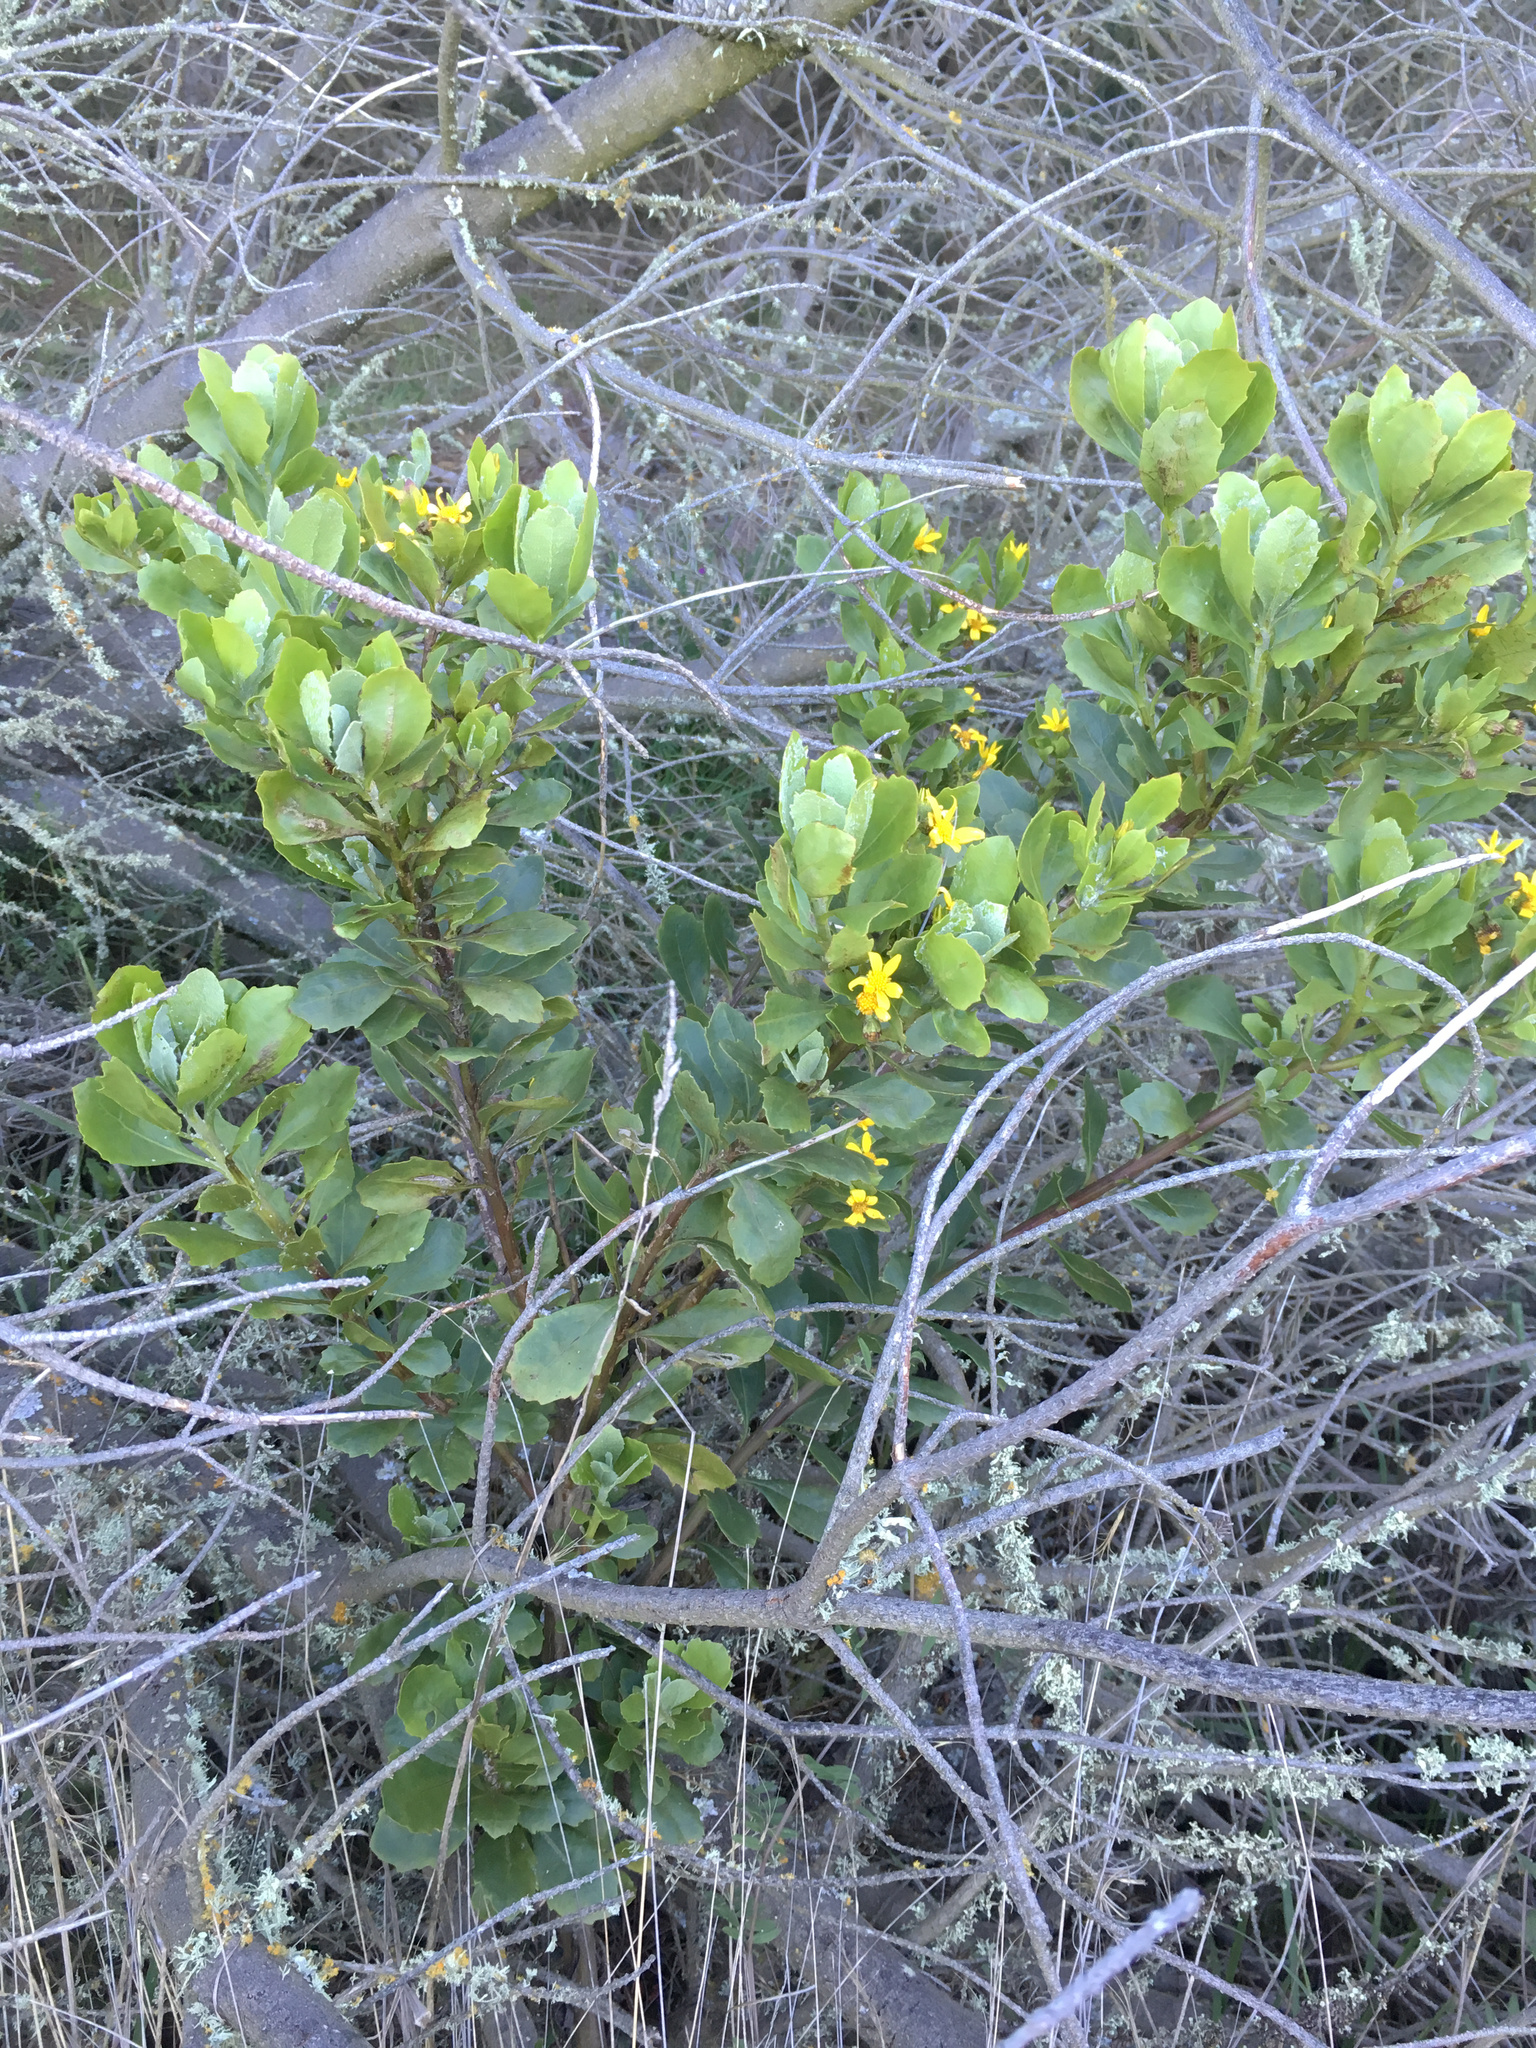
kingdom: Plantae
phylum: Tracheophyta
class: Magnoliopsida
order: Asterales
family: Asteraceae
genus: Osteospermum
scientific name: Osteospermum moniliferum
